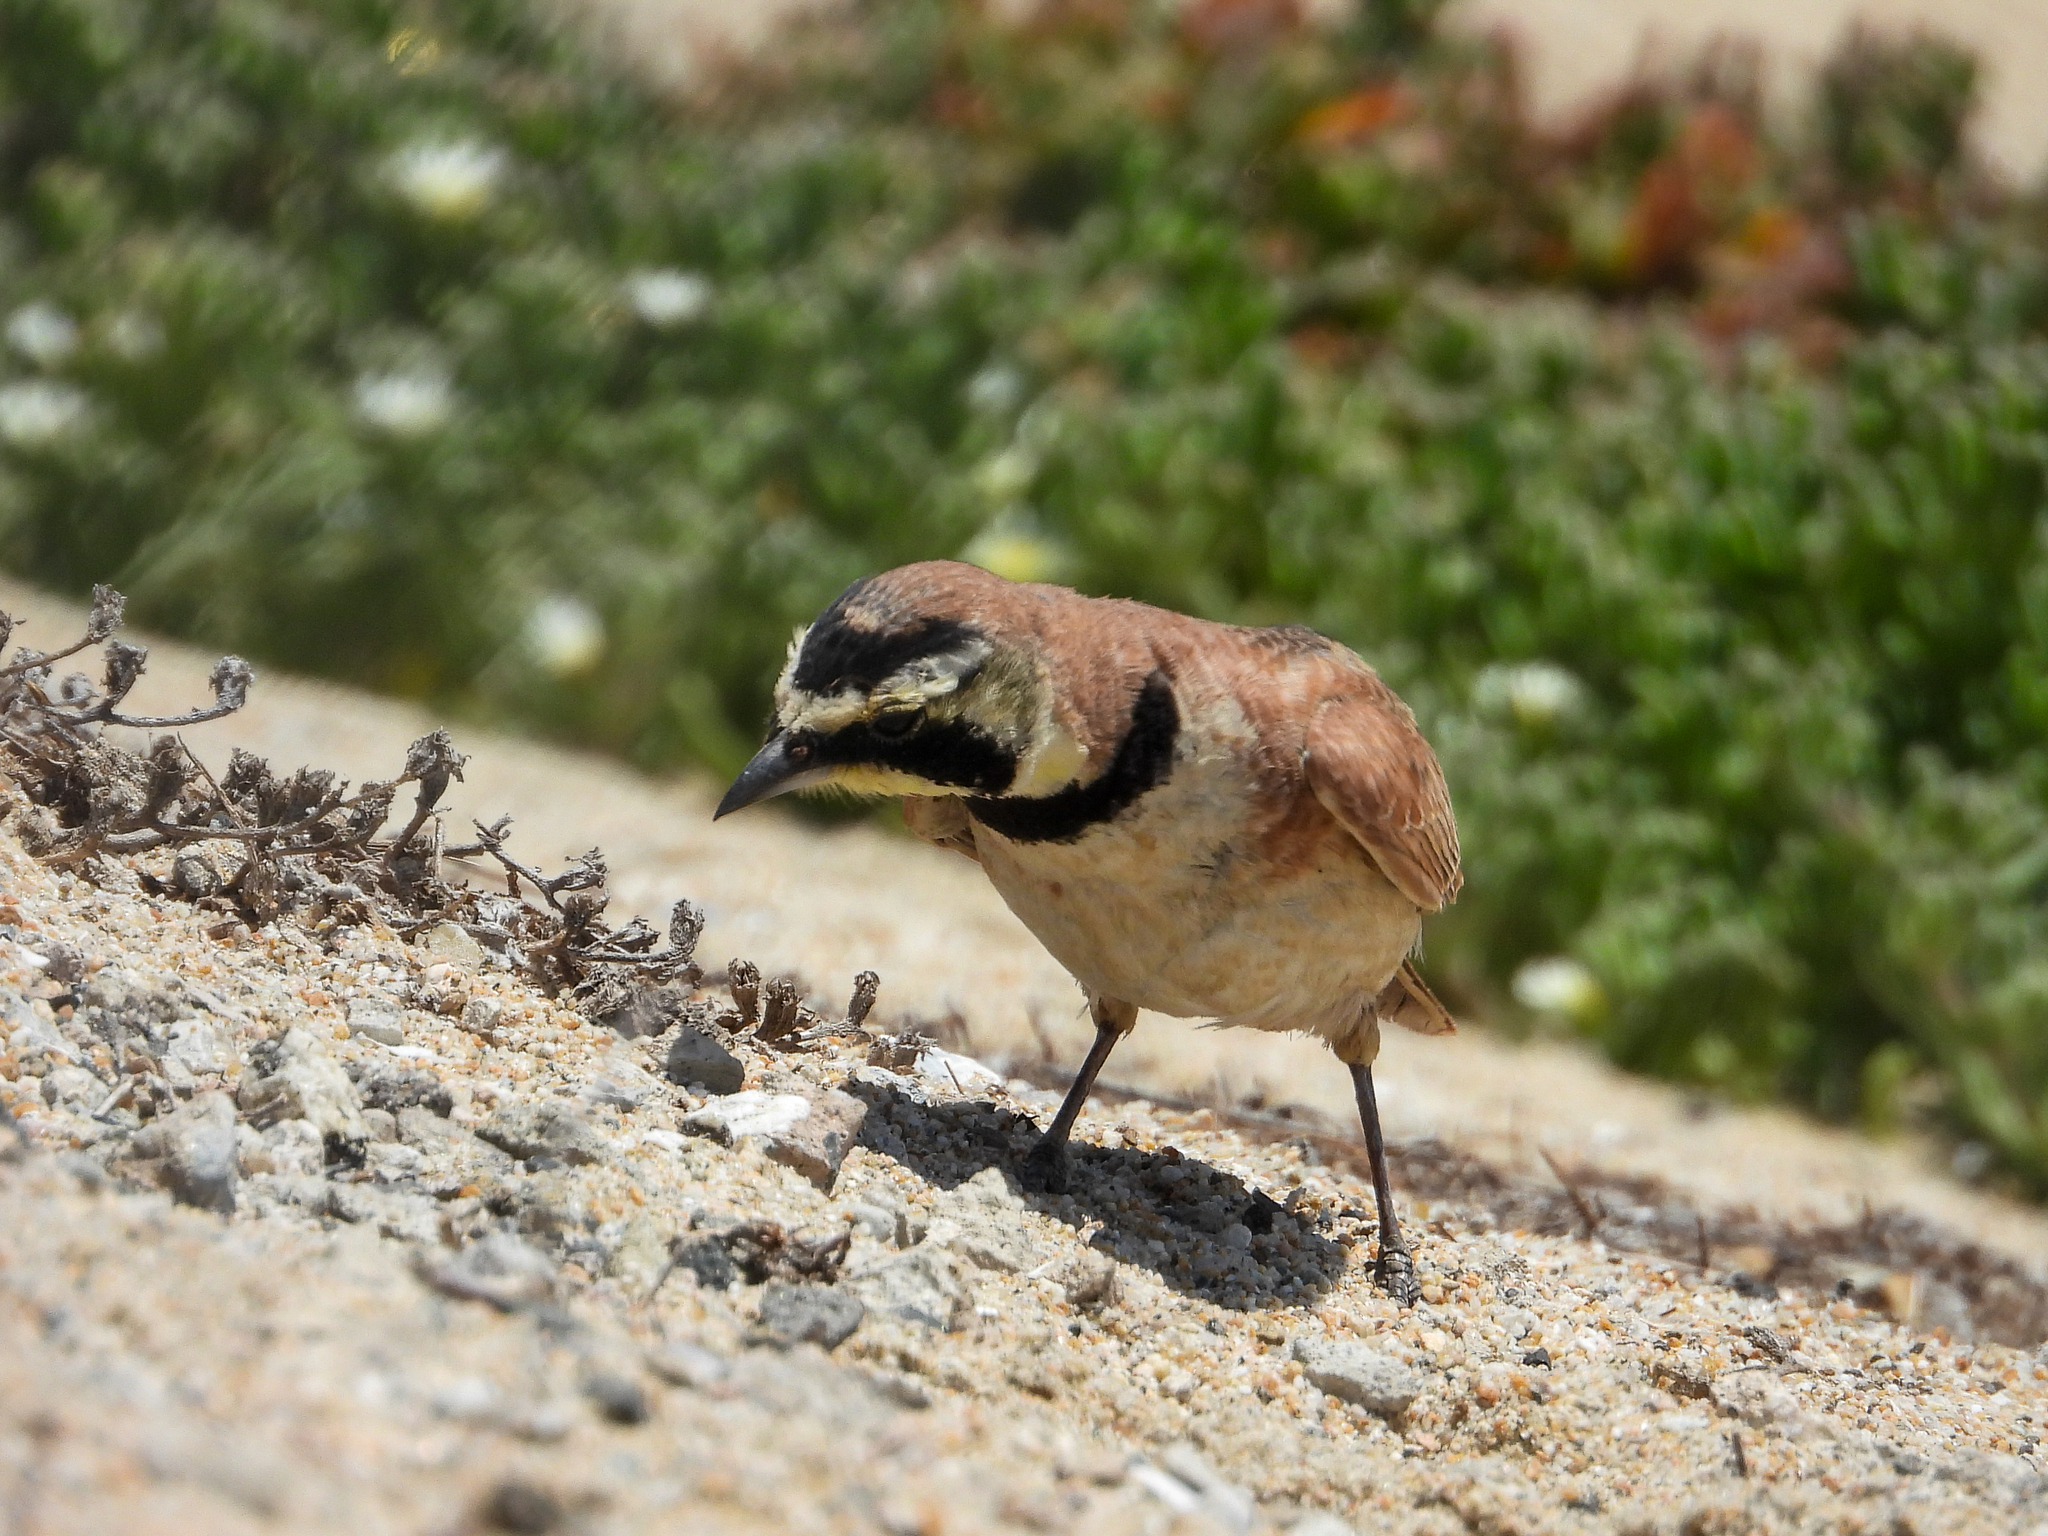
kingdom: Animalia
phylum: Chordata
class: Aves
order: Passeriformes
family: Alaudidae
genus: Eremophila
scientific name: Eremophila alpestris
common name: Horned lark
